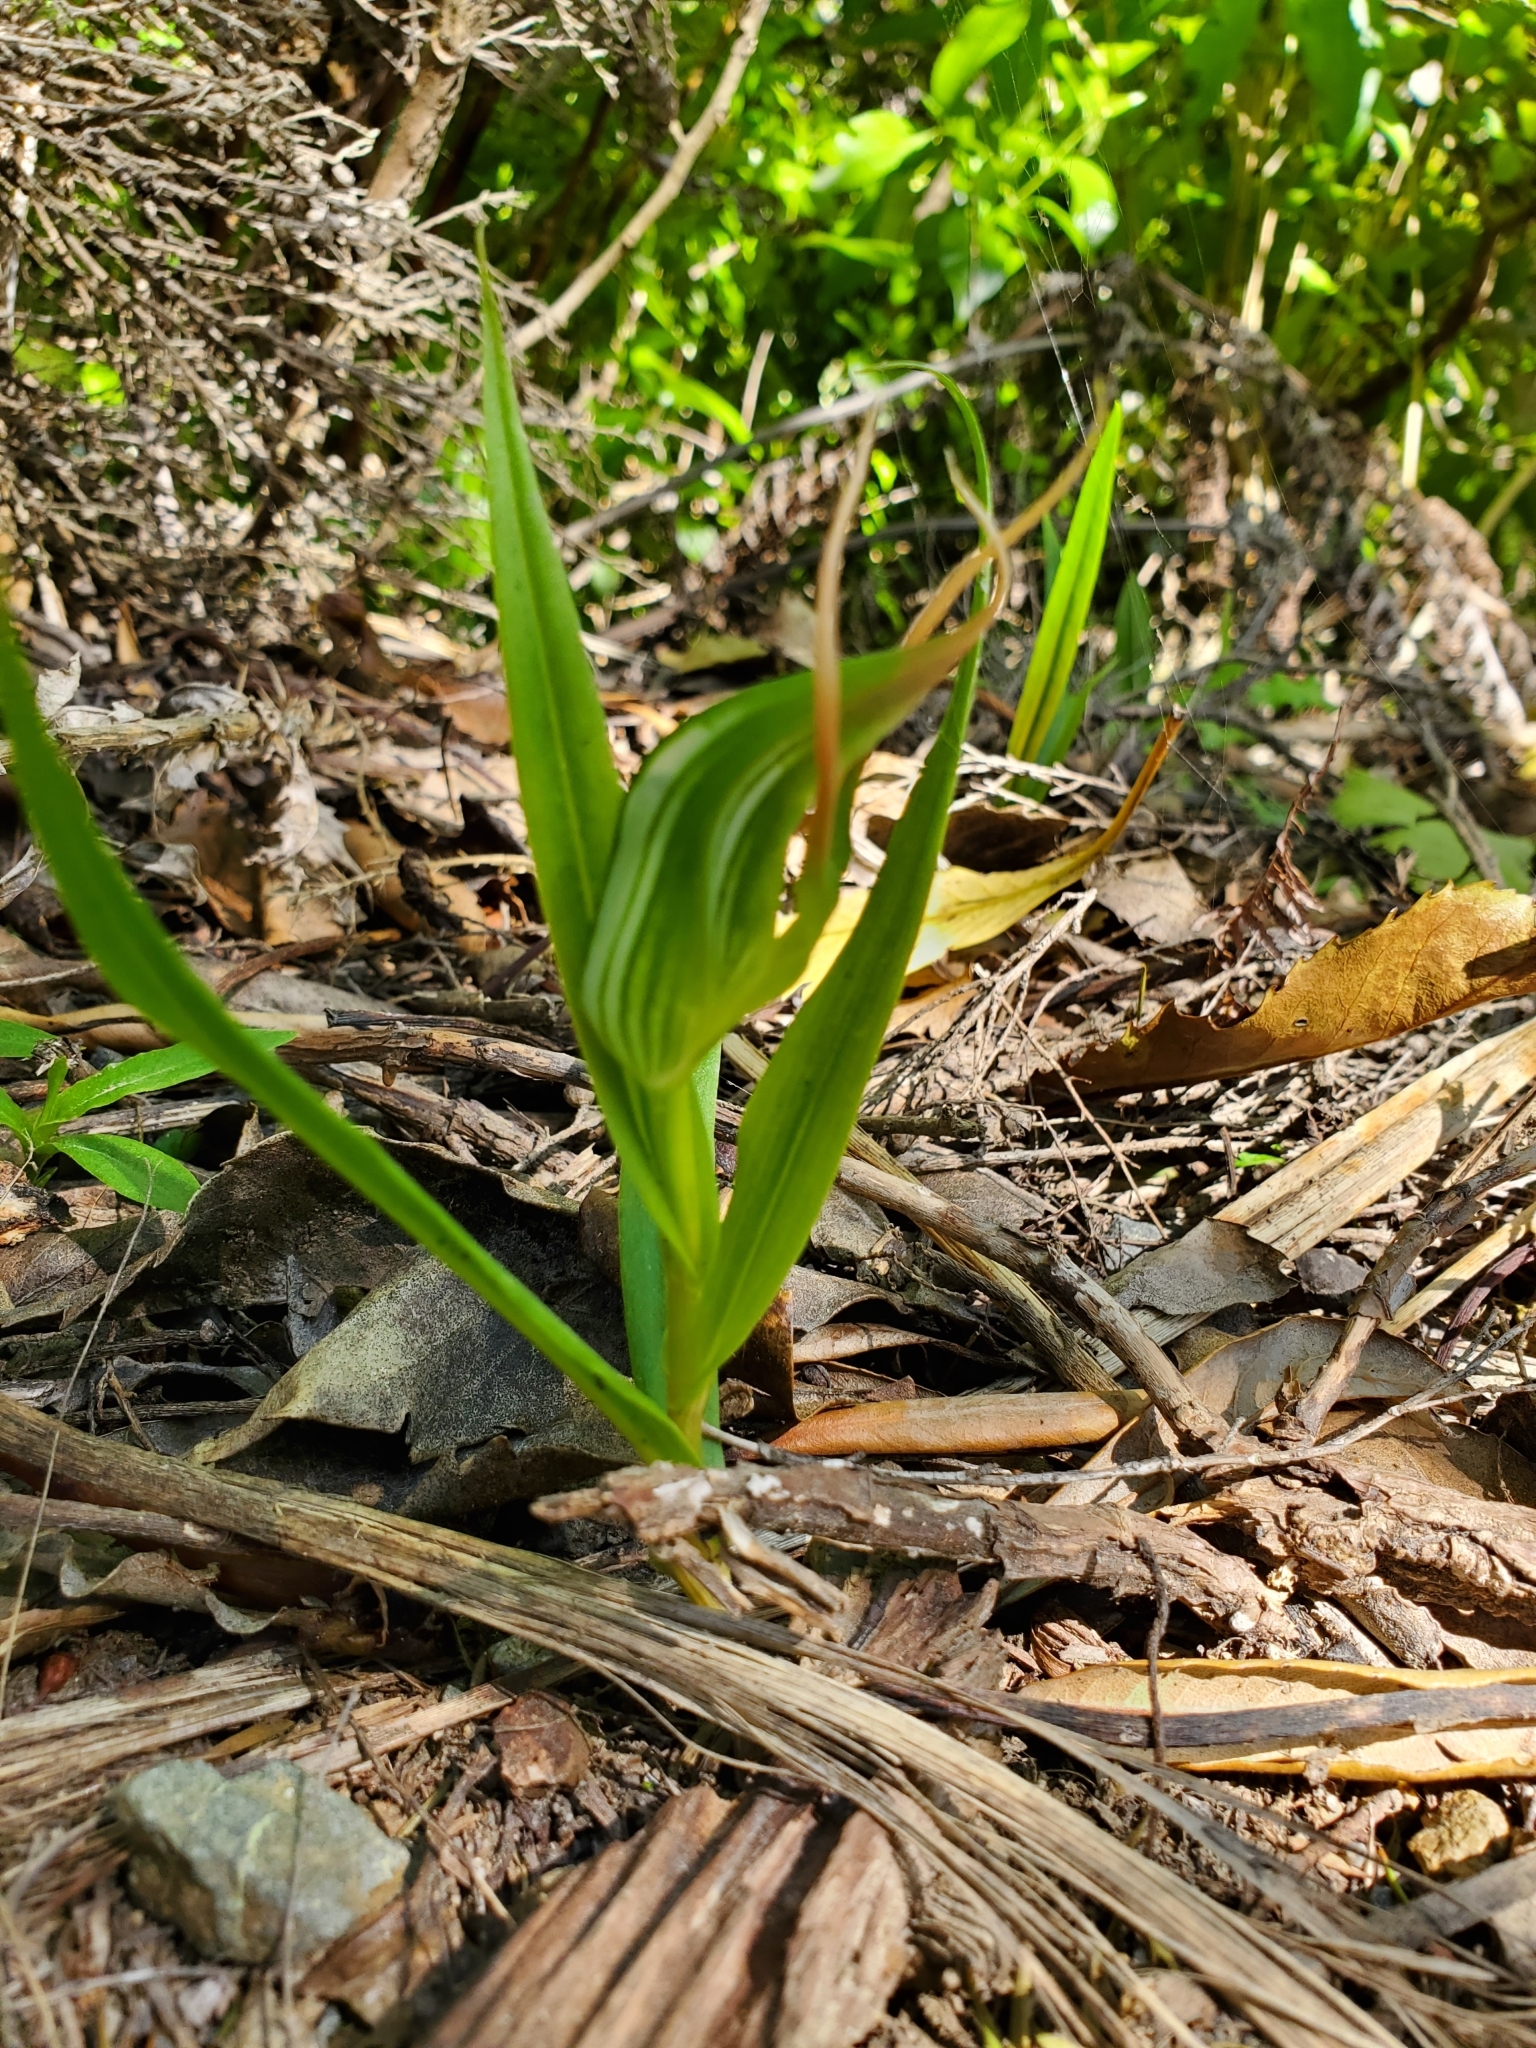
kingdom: Plantae
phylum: Tracheophyta
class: Liliopsida
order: Asparagales
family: Orchidaceae
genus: Pterostylis
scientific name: Pterostylis banksii
